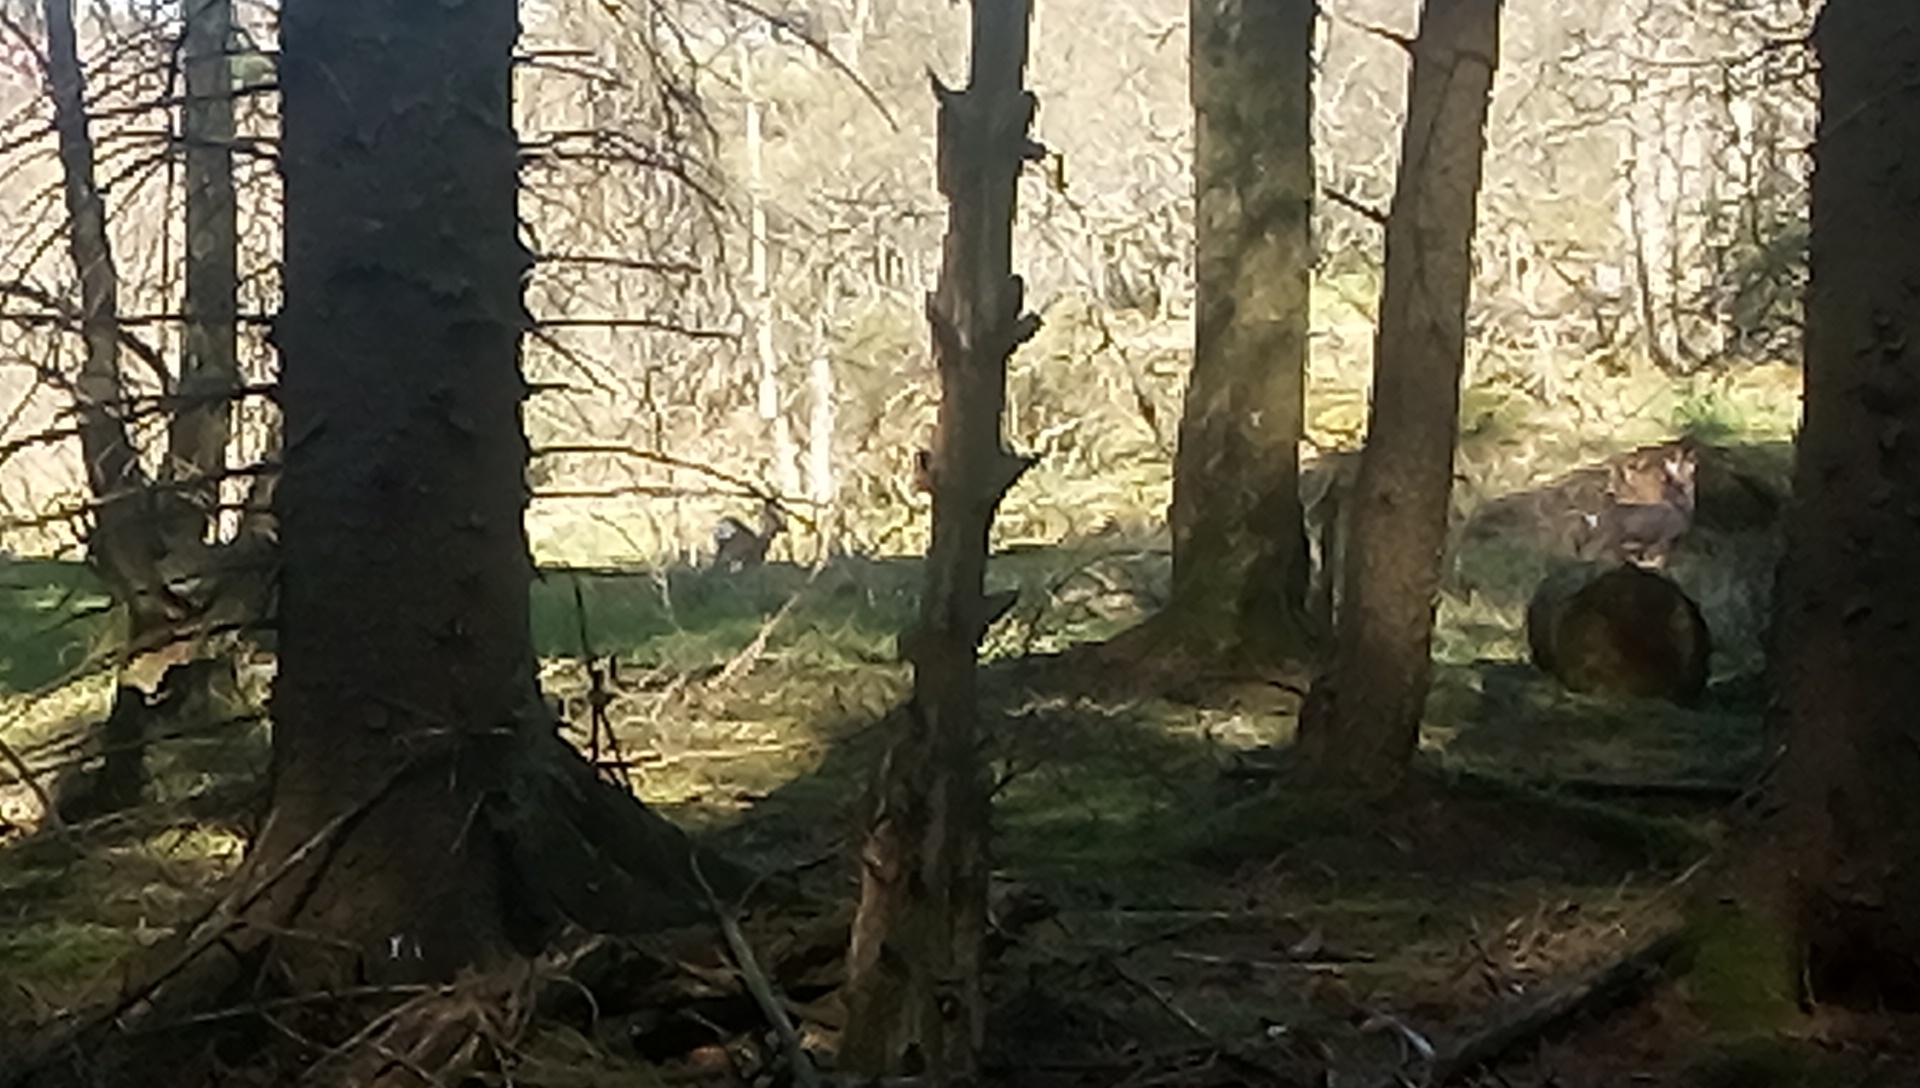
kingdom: Animalia
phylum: Chordata
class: Mammalia
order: Artiodactyla
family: Cervidae
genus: Capreolus
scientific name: Capreolus capreolus
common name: Western roe deer
